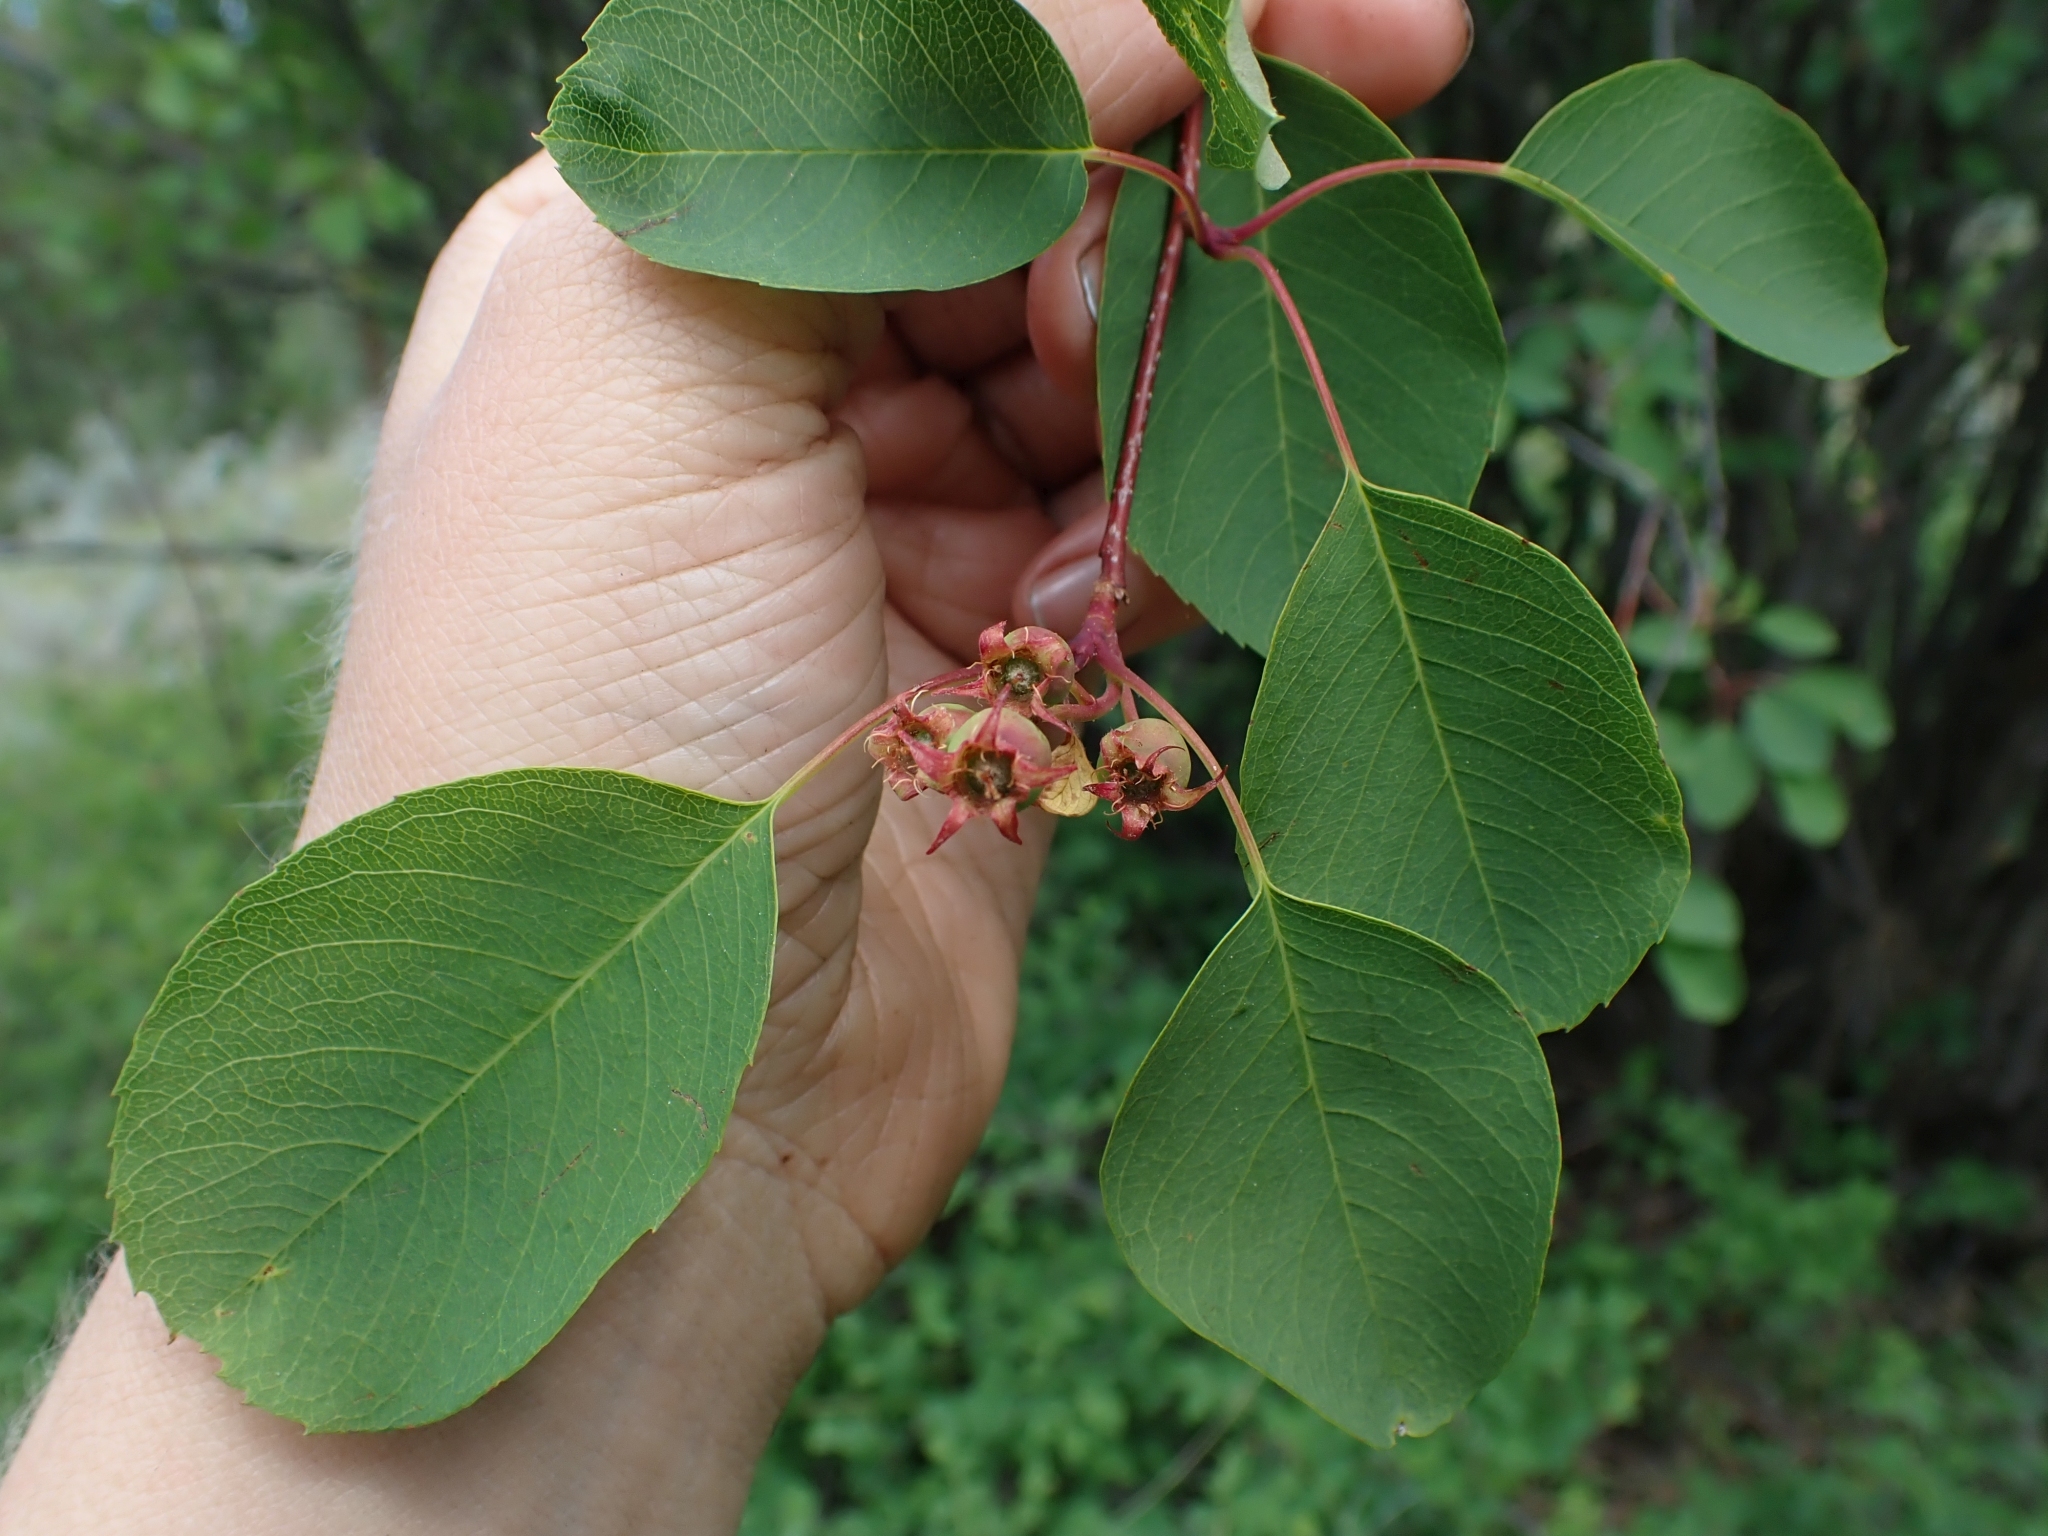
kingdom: Plantae
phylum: Tracheophyta
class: Magnoliopsida
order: Rosales
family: Rosaceae
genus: Amelanchier
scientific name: Amelanchier alnifolia
